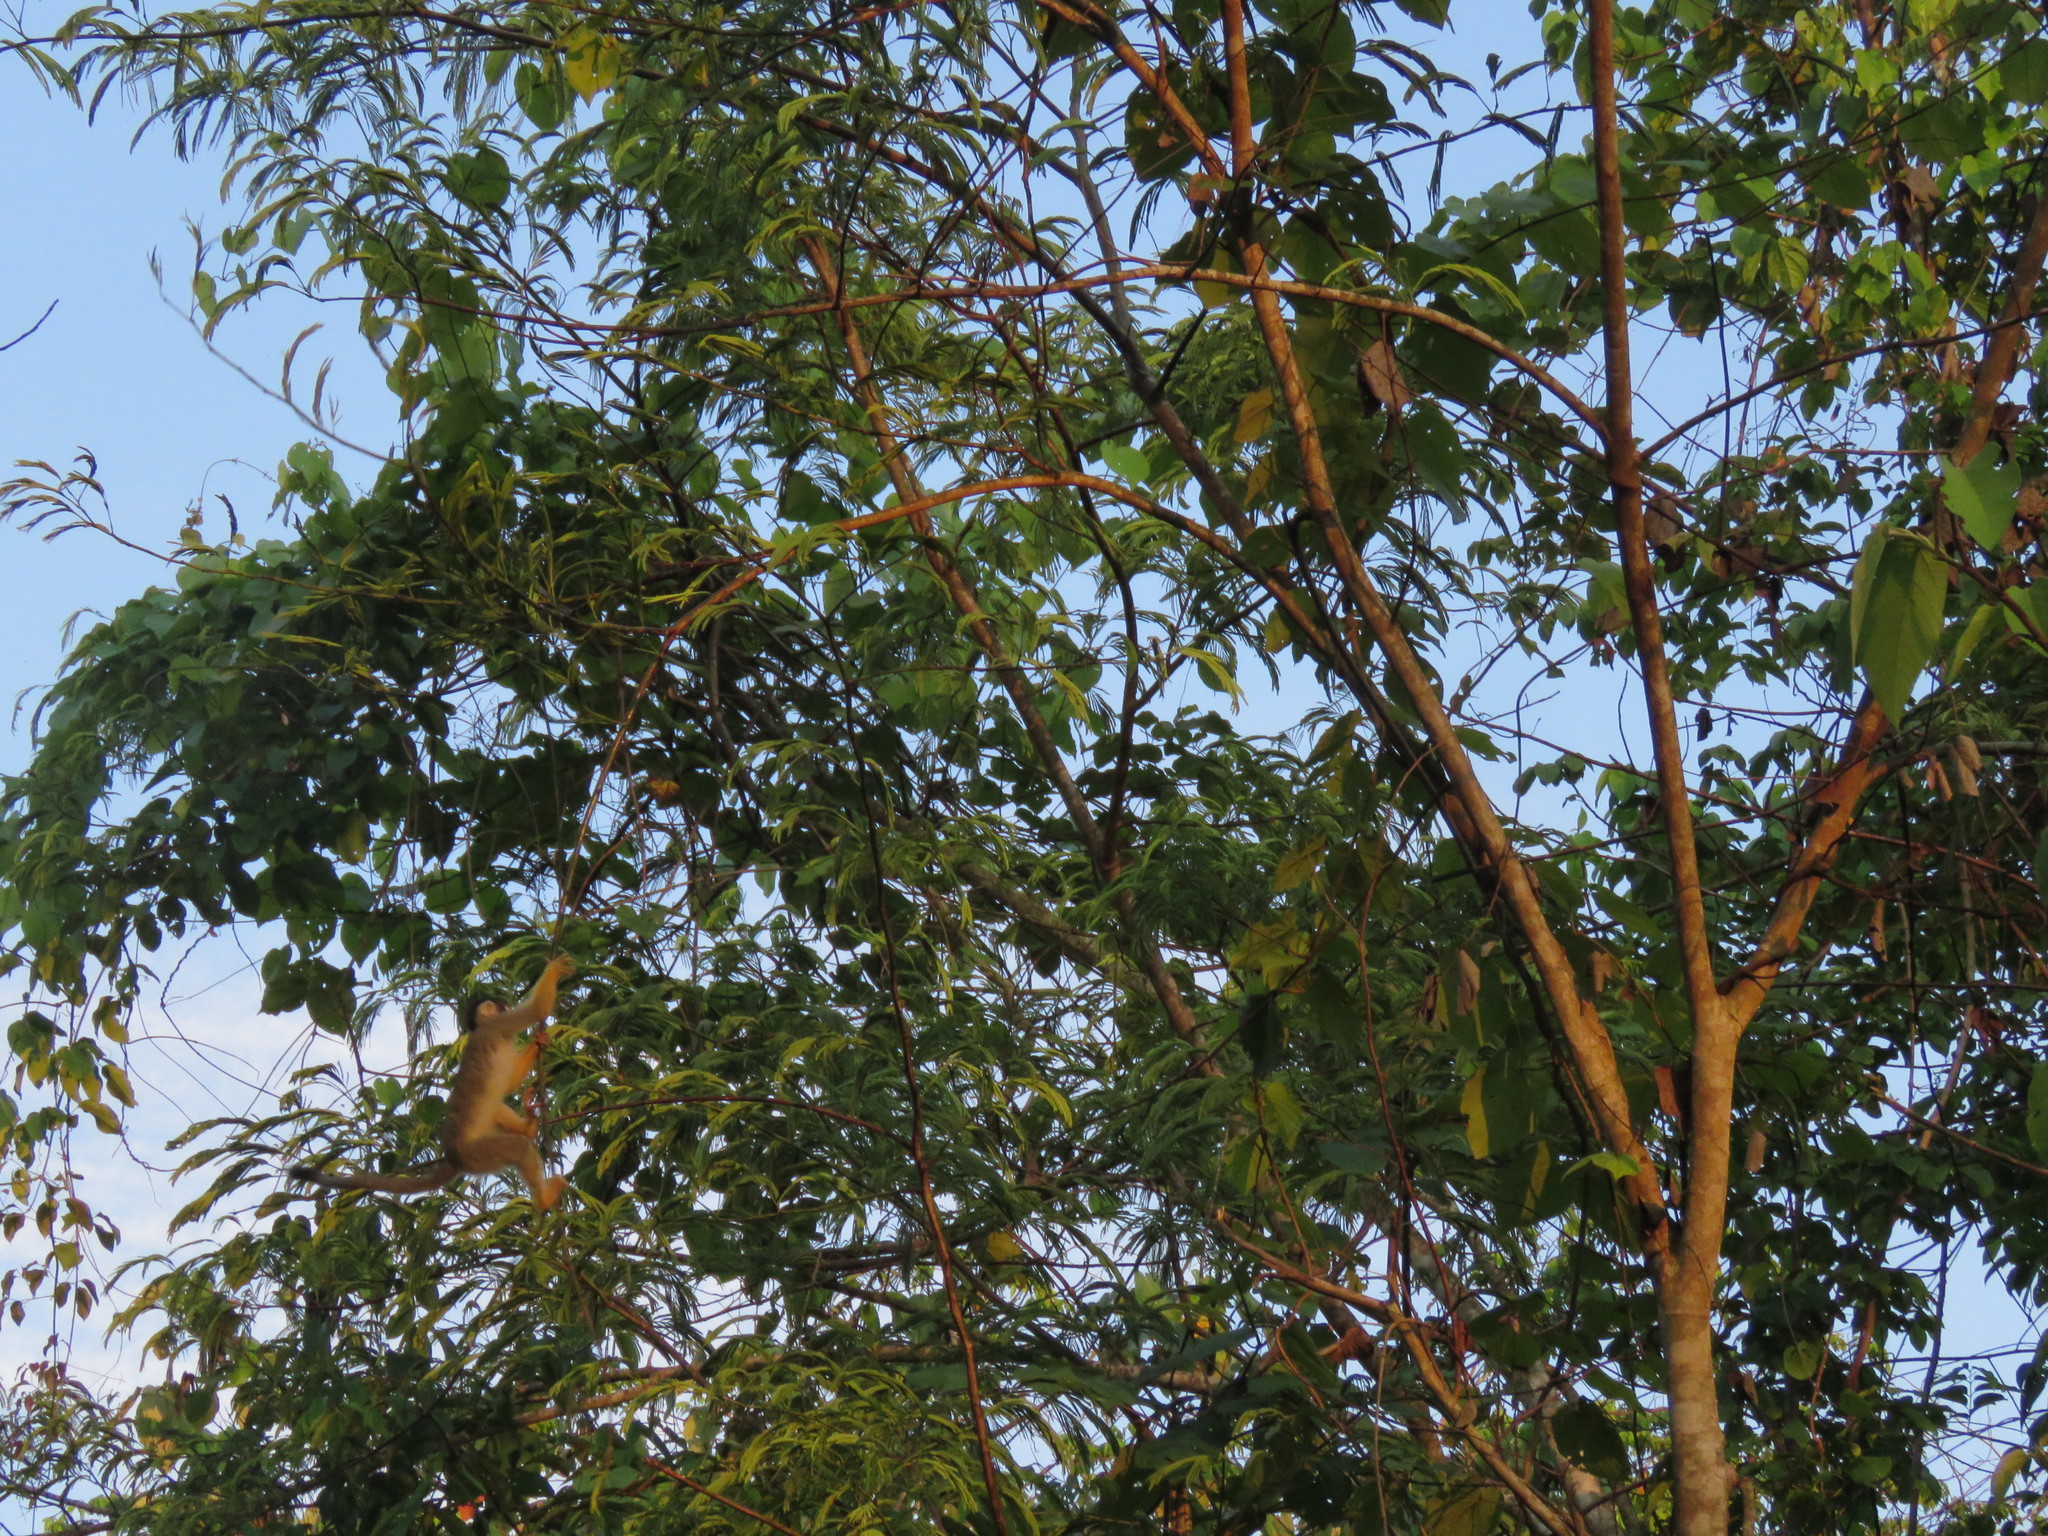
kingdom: Animalia
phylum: Chordata
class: Mammalia
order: Primates
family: Cebidae
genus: Saimiri
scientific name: Saimiri boliviensis
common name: Black-capped squirrel monkey
